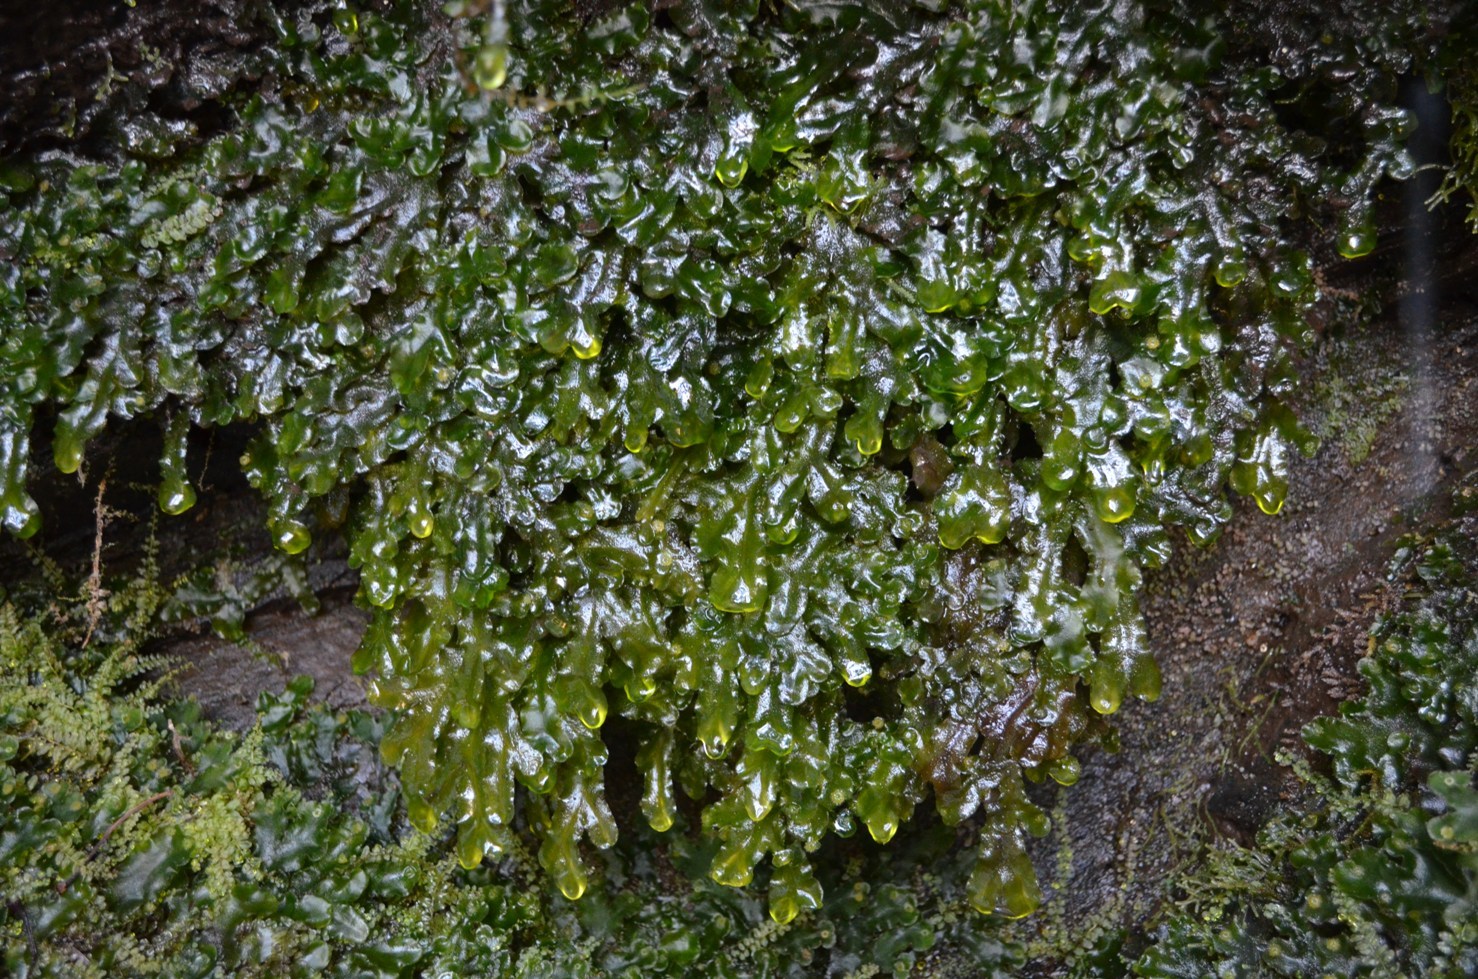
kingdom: Plantae
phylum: Marchantiophyta
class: Marchantiopsida
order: Marchantiales
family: Dumortieraceae
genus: Dumortiera
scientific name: Dumortiera hirsuta
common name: Dumortier's liverwort
